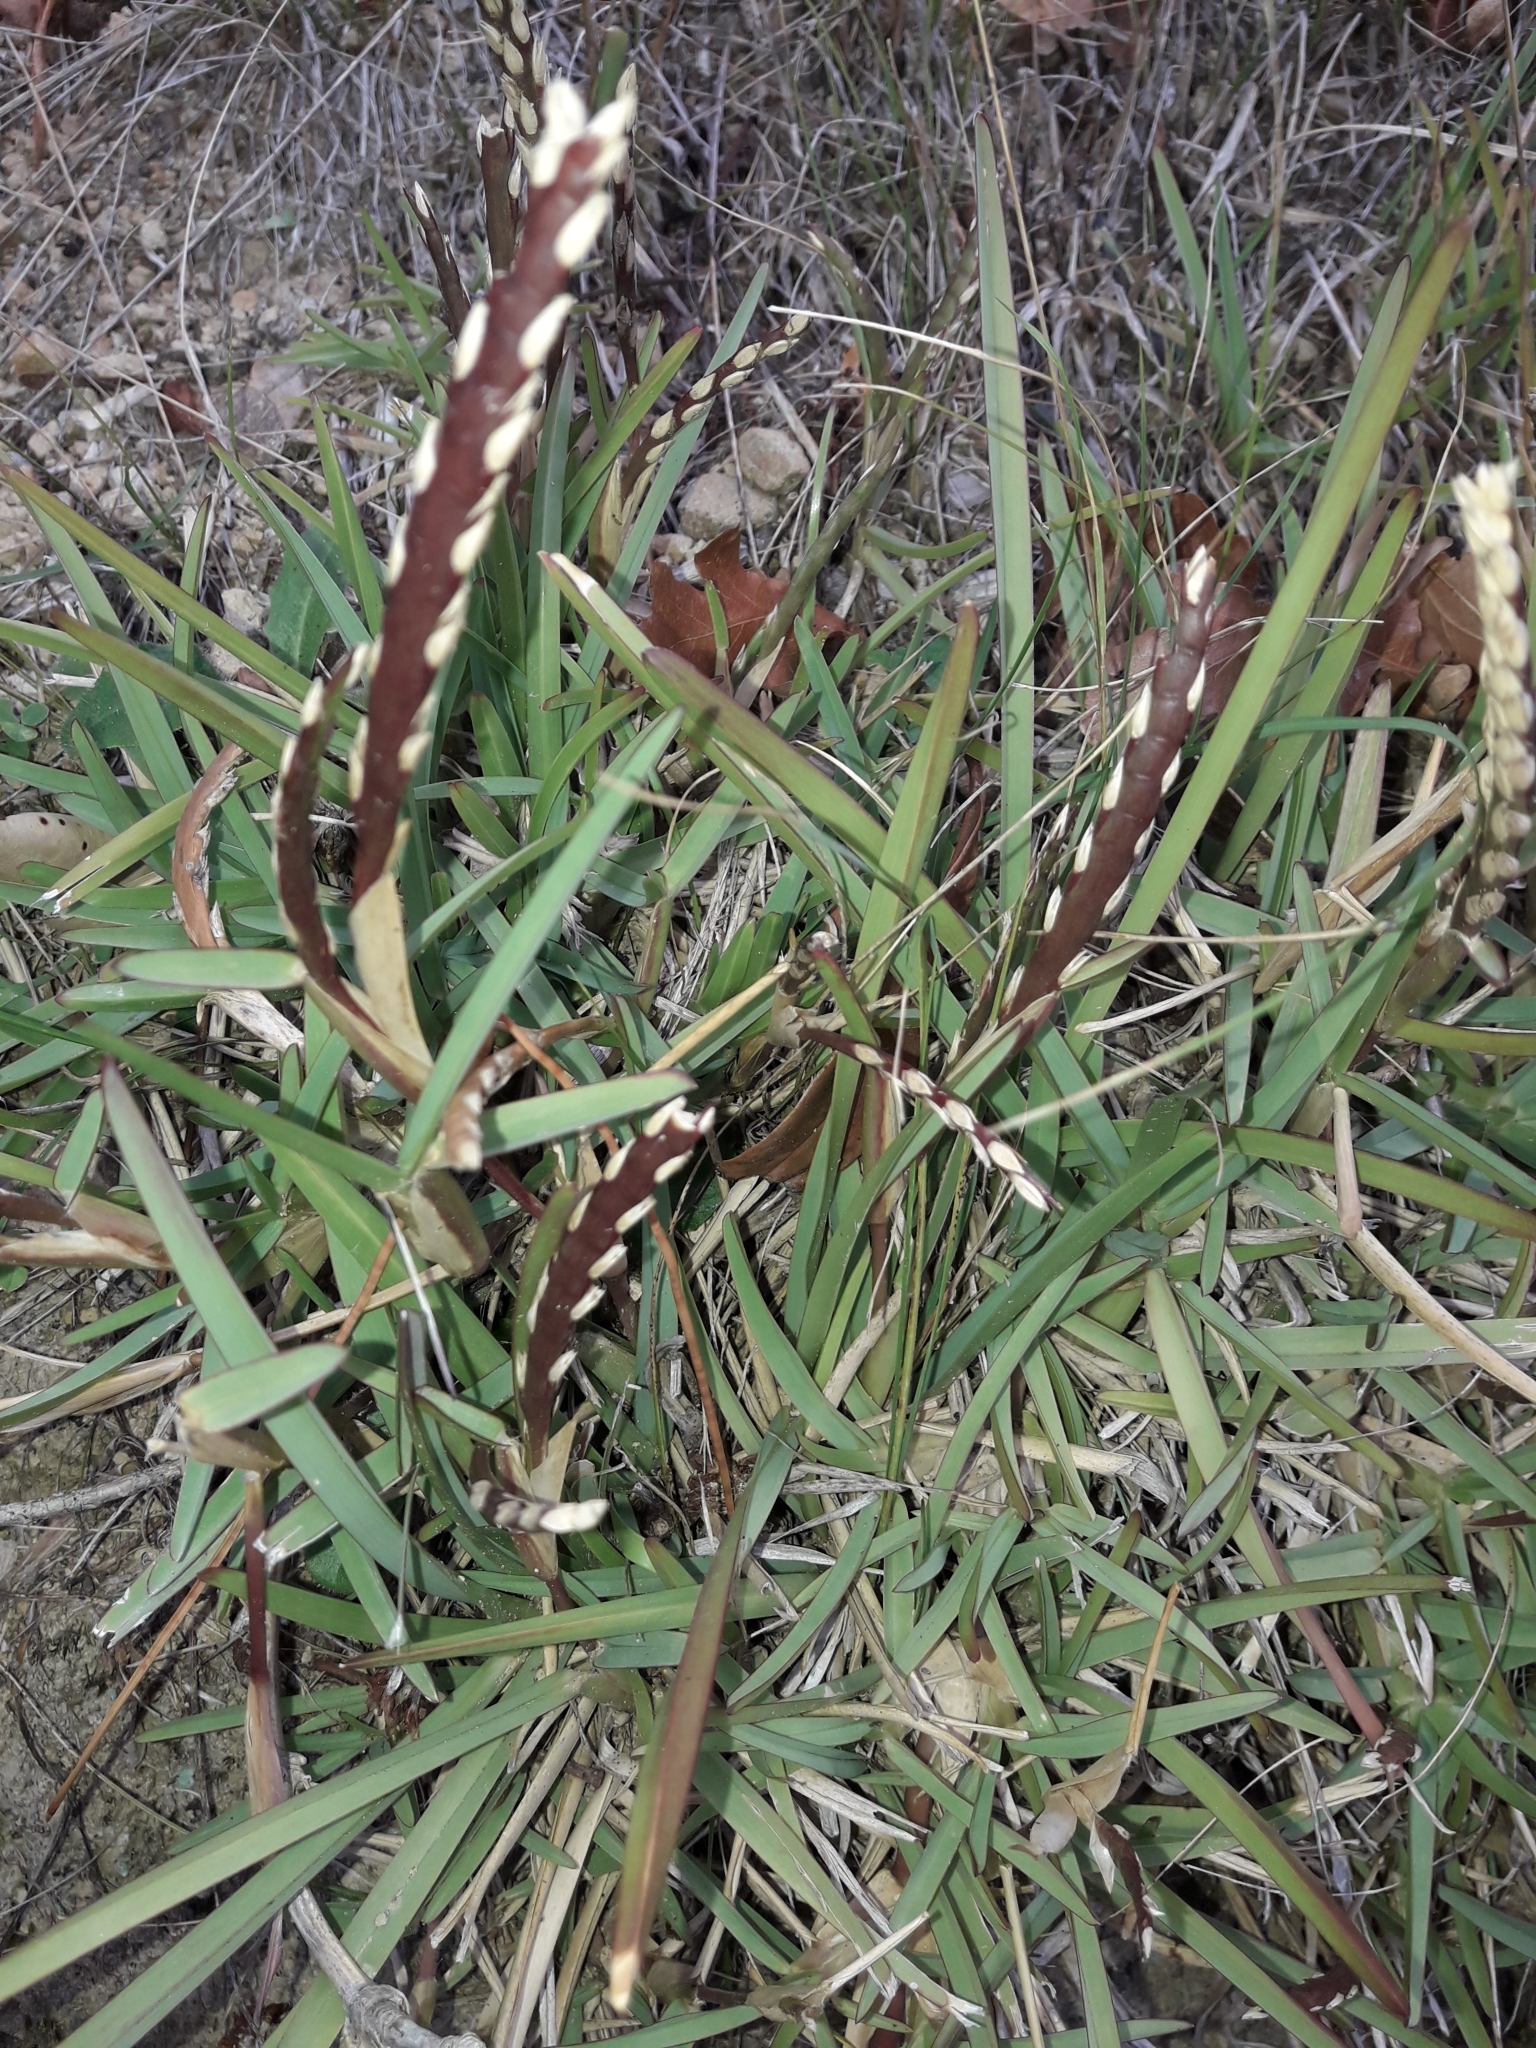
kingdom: Plantae
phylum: Tracheophyta
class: Liliopsida
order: Poales
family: Poaceae
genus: Stenotaphrum
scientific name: Stenotaphrum secundatum
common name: St. augustine grass
